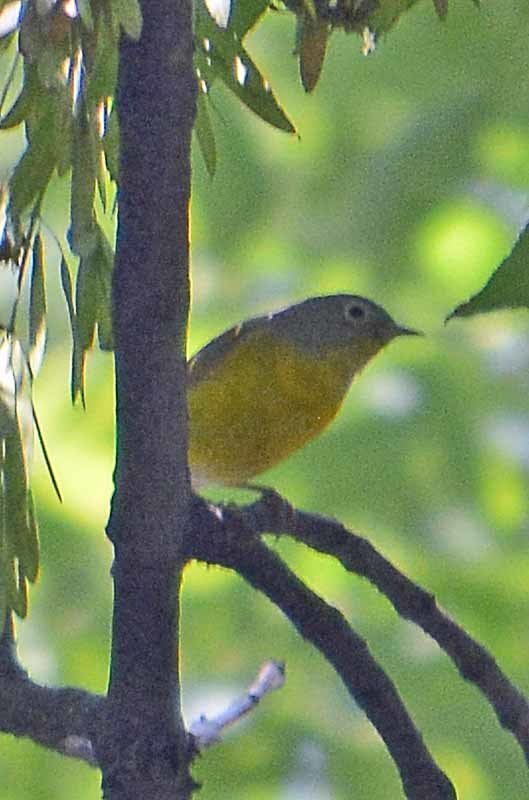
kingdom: Animalia
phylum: Chordata
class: Aves
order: Passeriformes
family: Parulidae
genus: Leiothlypis
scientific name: Leiothlypis ruficapilla
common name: Nashville warbler
